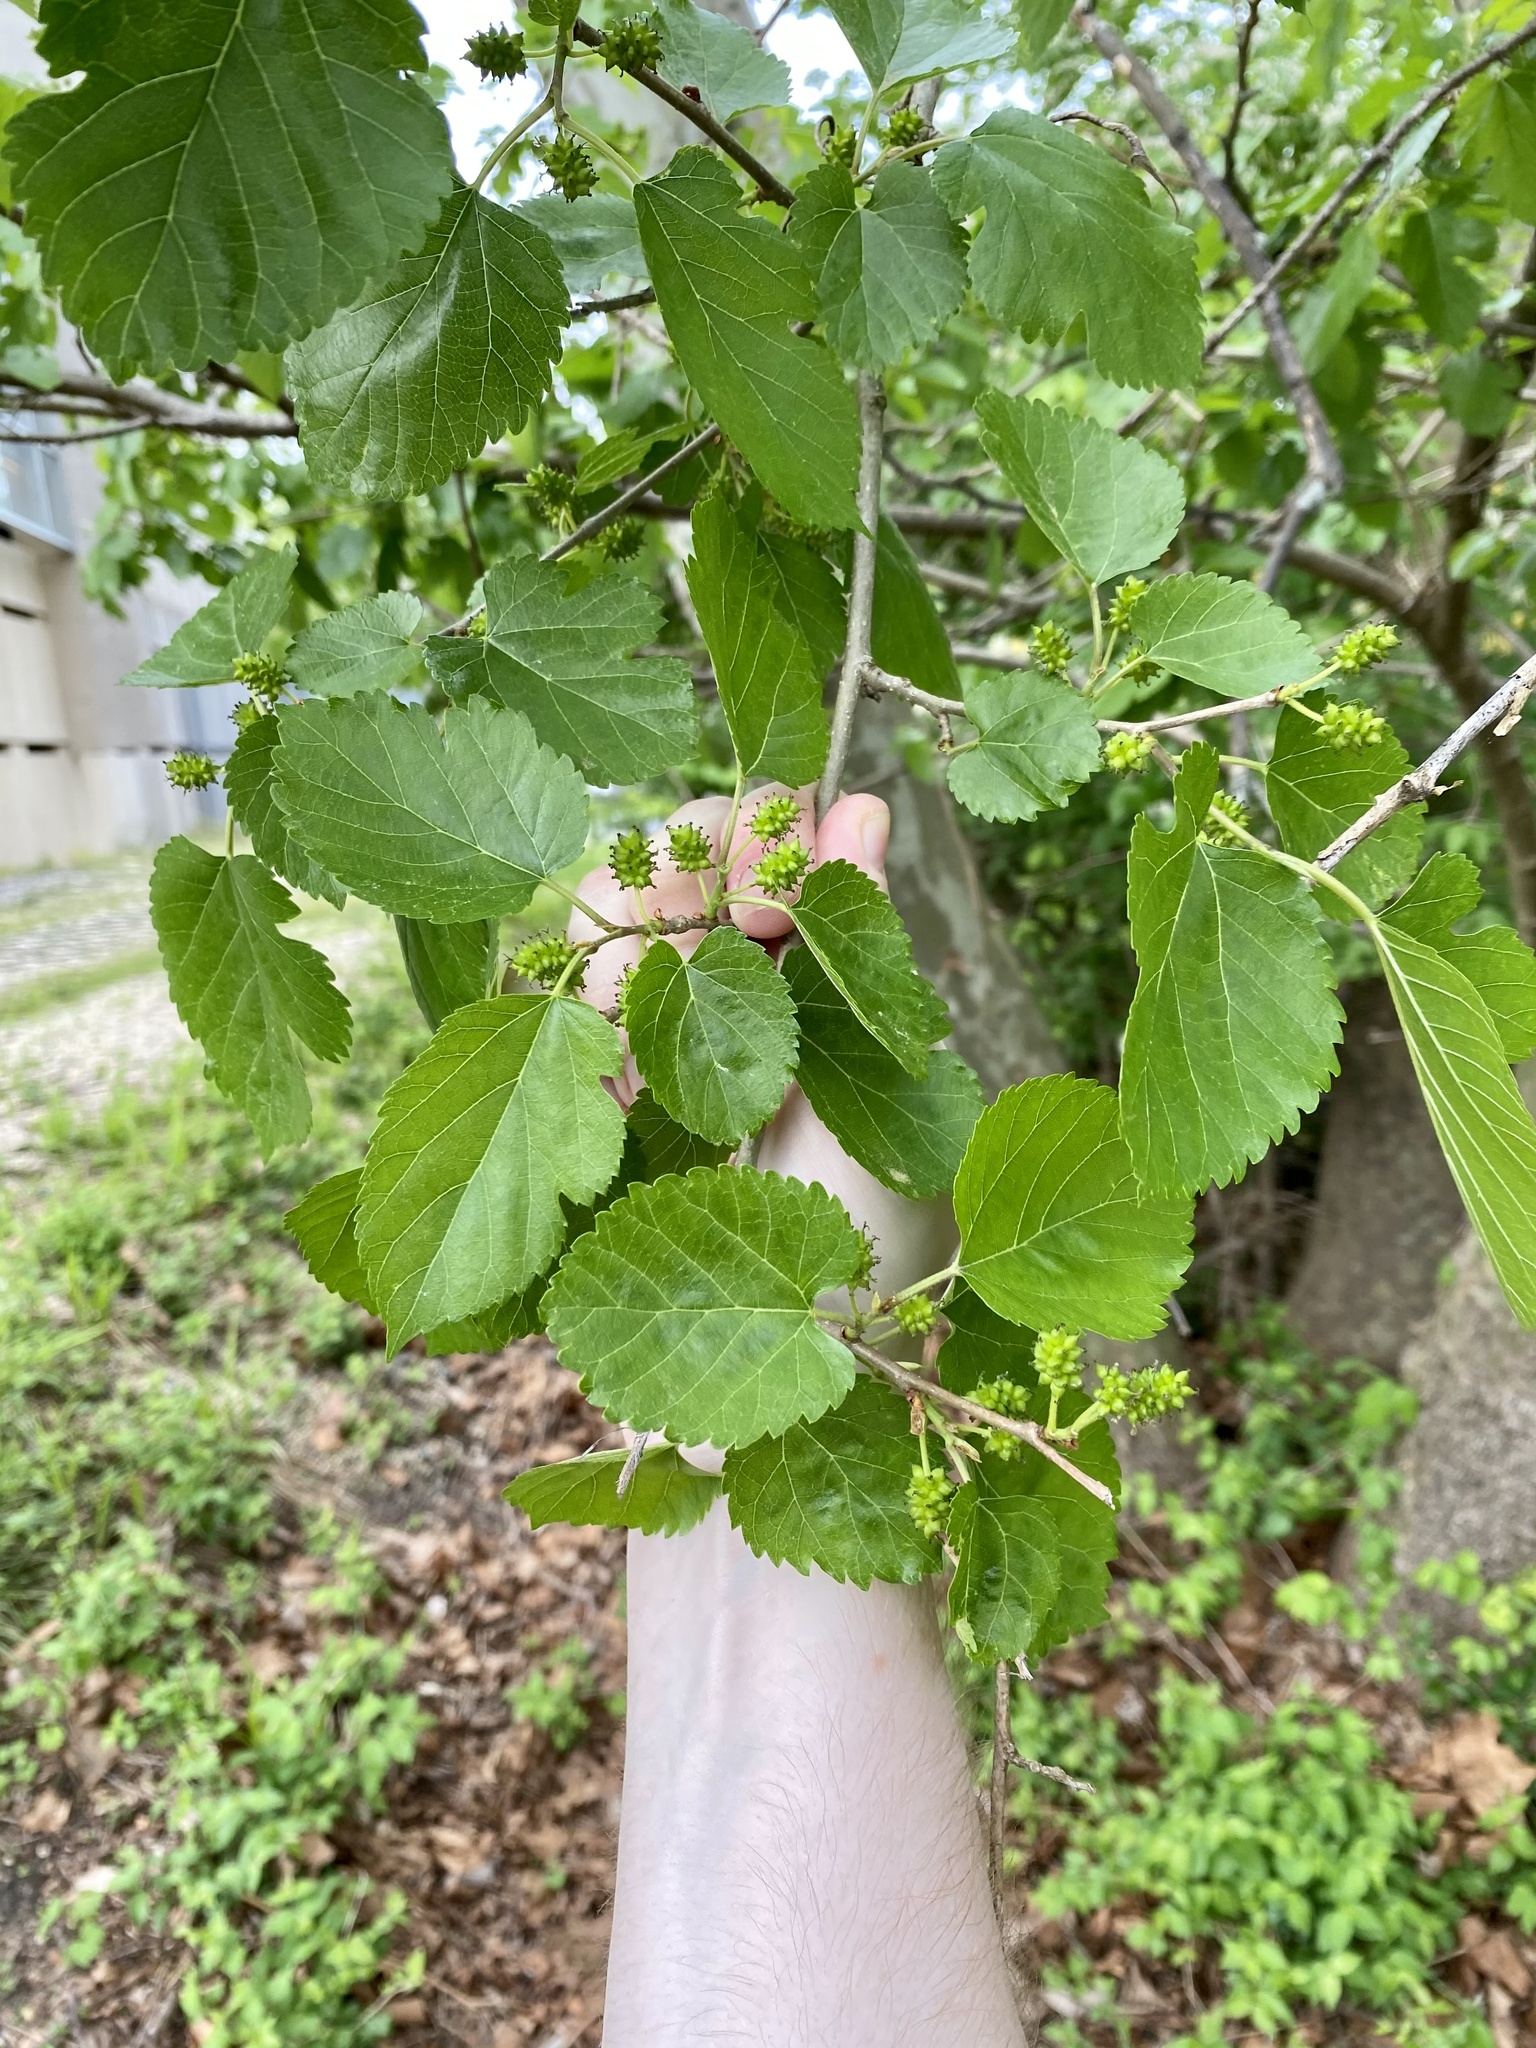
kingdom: Plantae
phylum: Tracheophyta
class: Magnoliopsida
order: Rosales
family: Moraceae
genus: Morus
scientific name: Morus alba
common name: White mulberry
